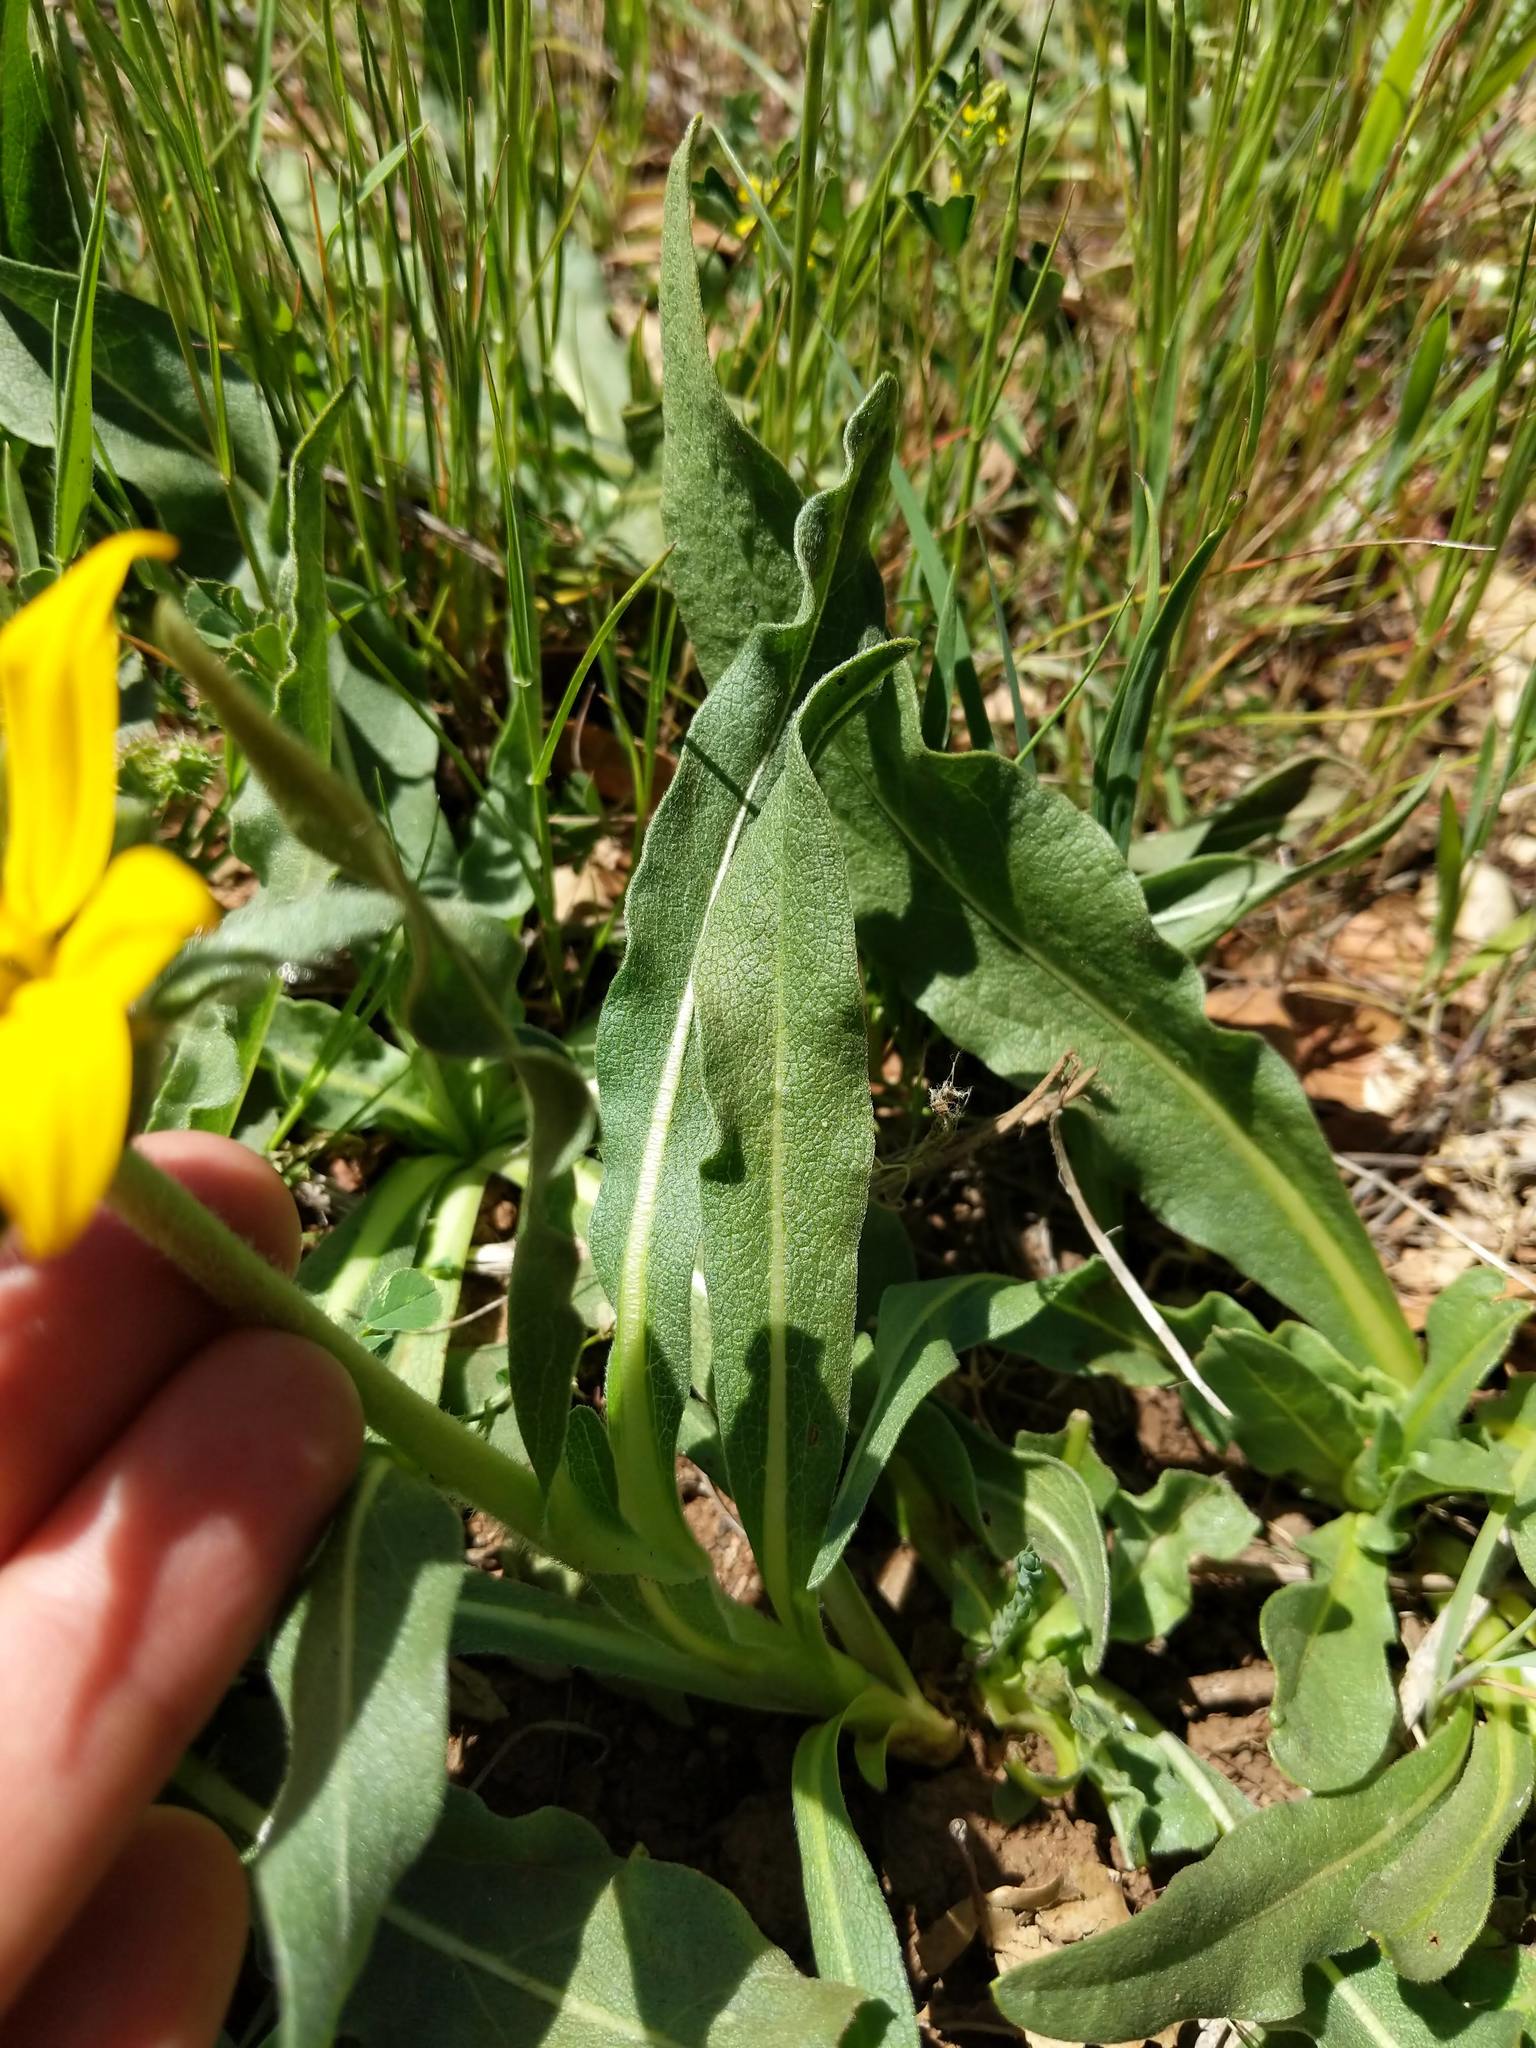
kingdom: Plantae
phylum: Tracheophyta
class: Magnoliopsida
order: Asterales
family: Asteraceae
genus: Wyethia
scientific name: Wyethia angustifolia
